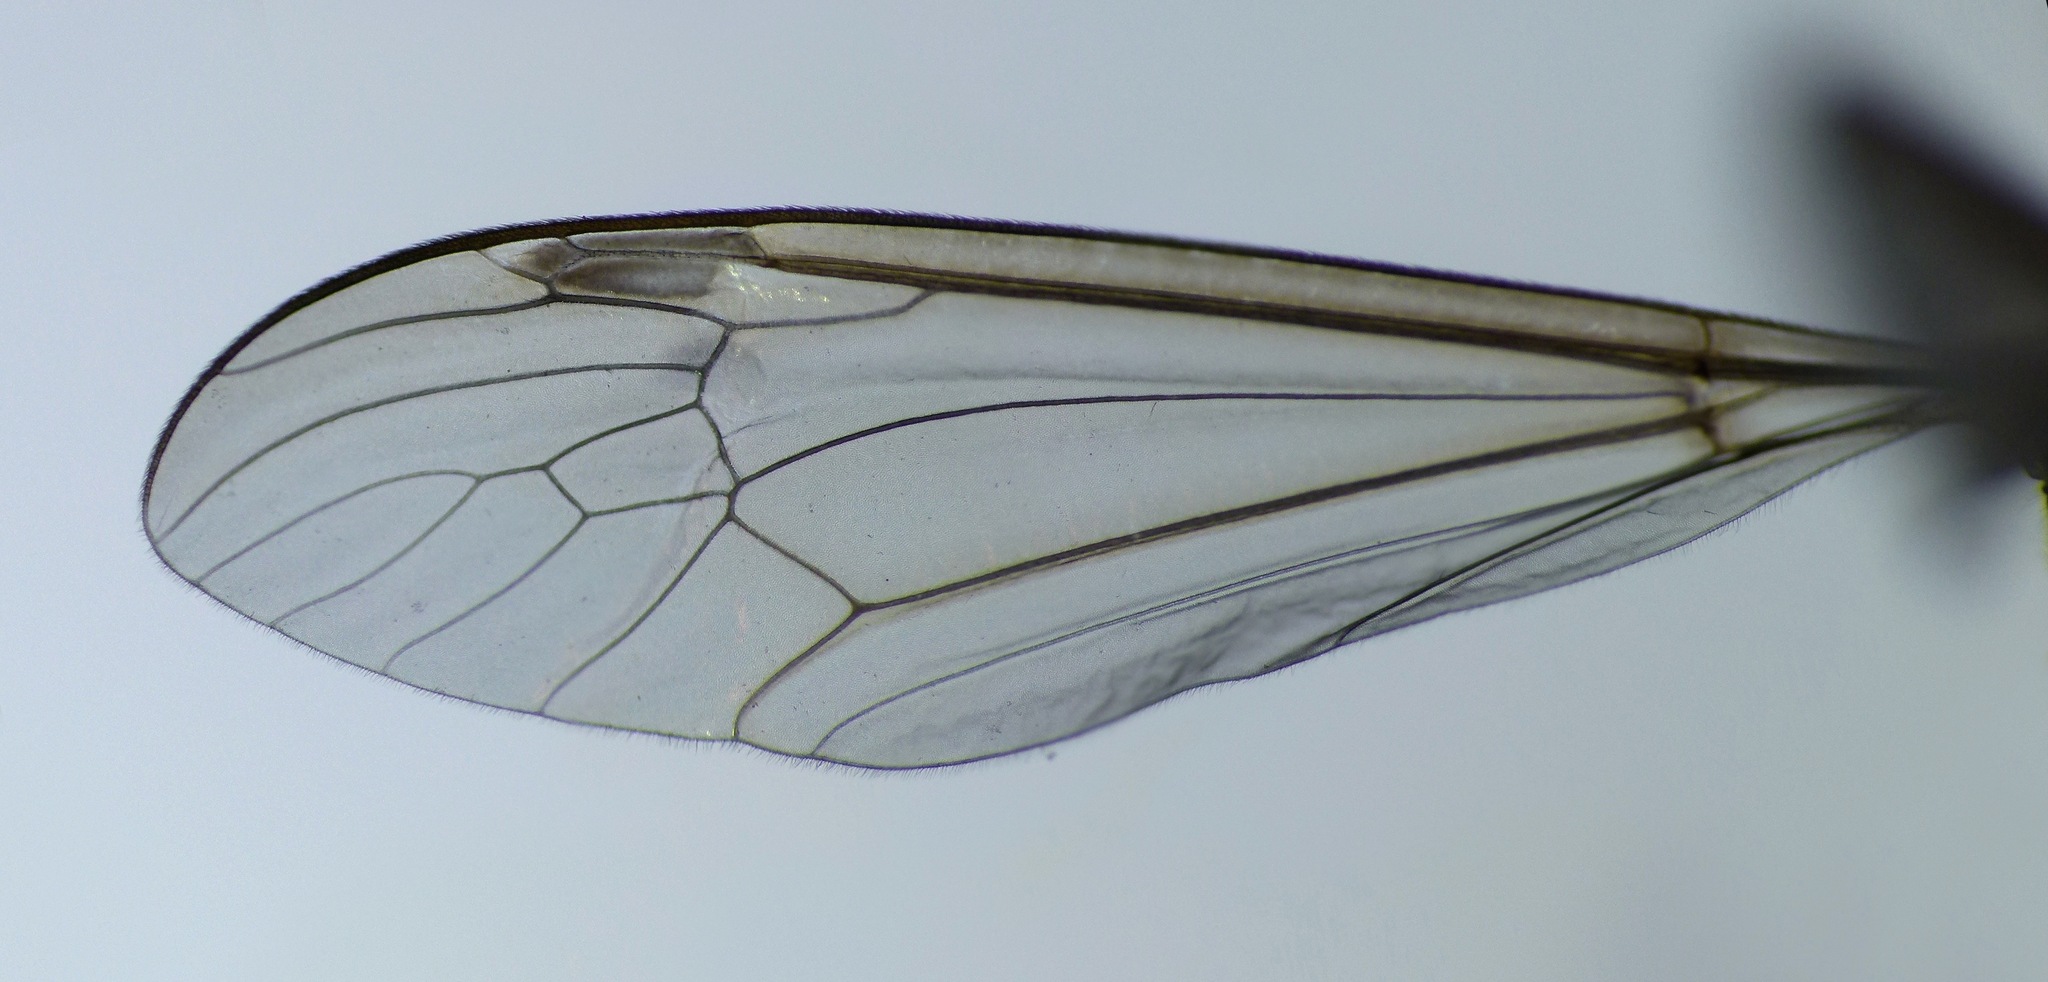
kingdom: Animalia
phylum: Arthropoda
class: Insecta
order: Diptera
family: Tipulidae
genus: Leptotarsus
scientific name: Leptotarsus mesocerus
